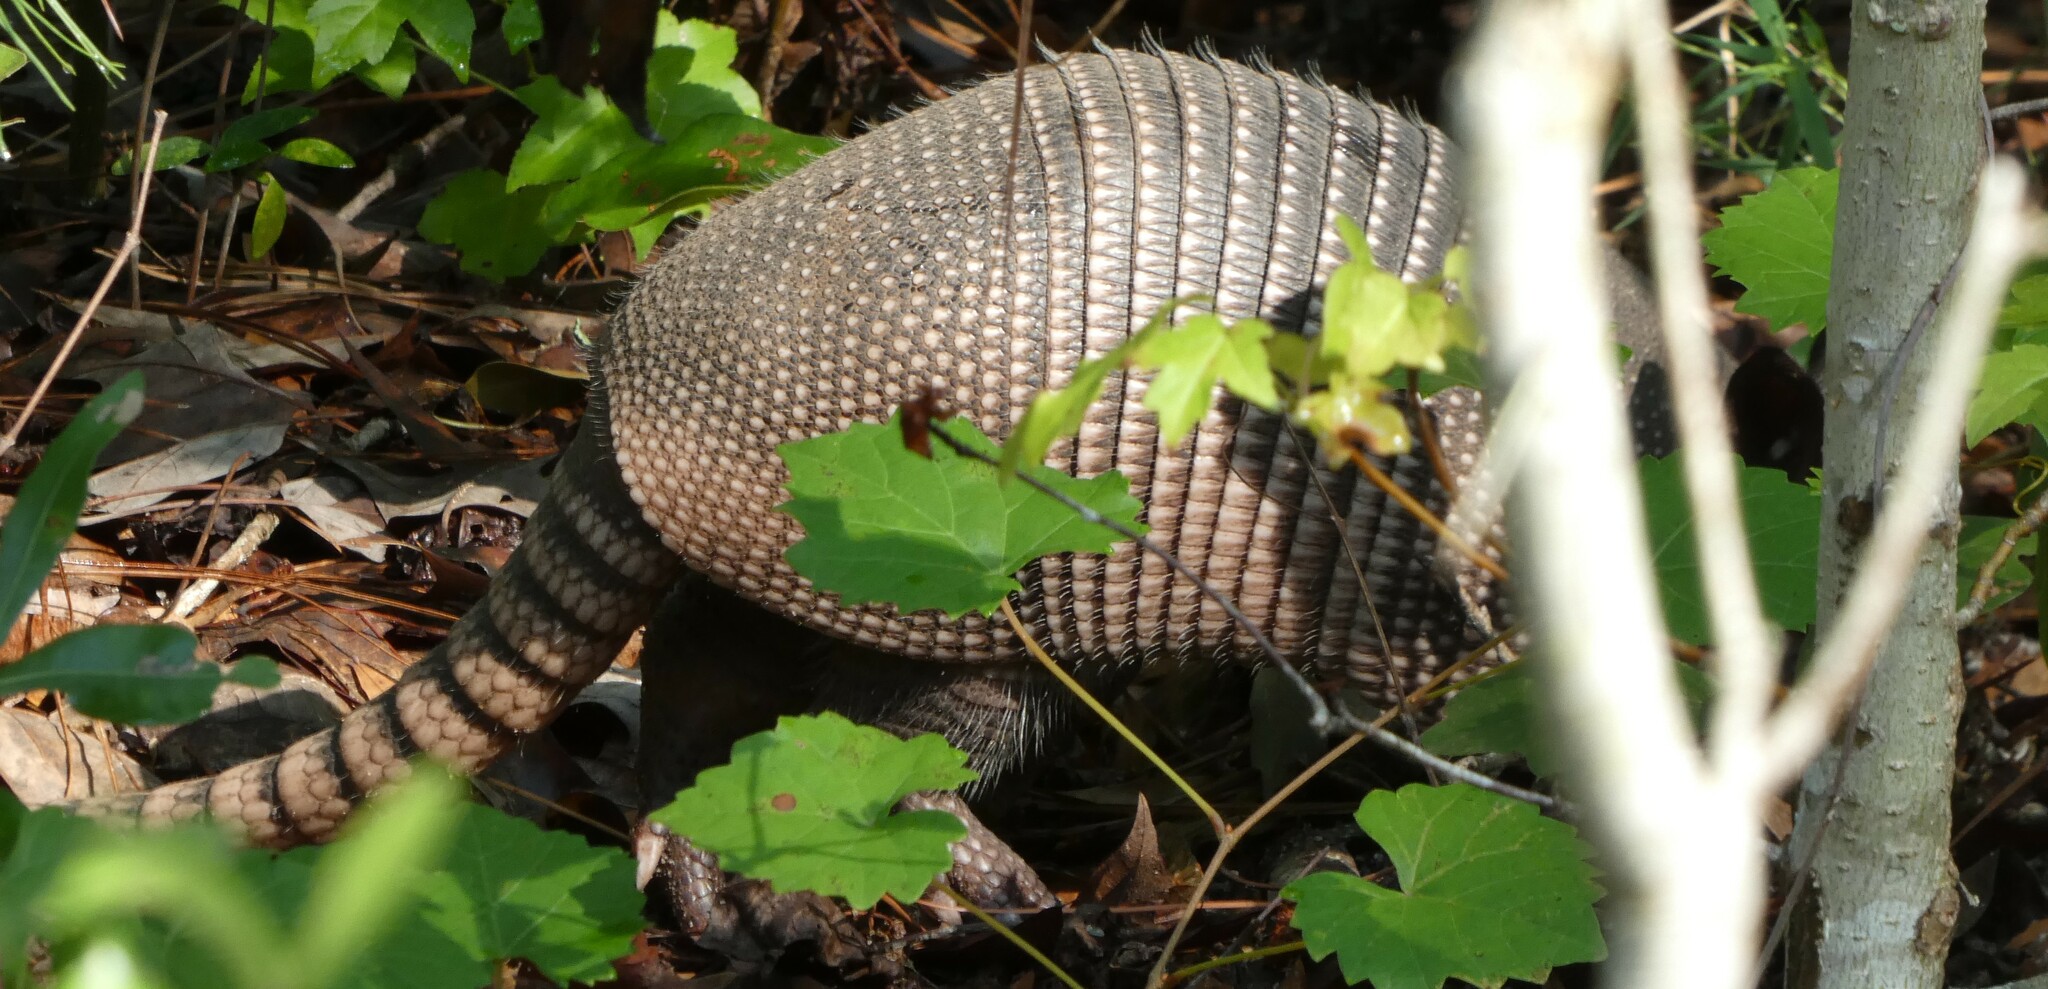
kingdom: Animalia
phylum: Chordata
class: Mammalia
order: Cingulata
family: Dasypodidae
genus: Dasypus
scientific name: Dasypus novemcinctus
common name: Nine-banded armadillo
